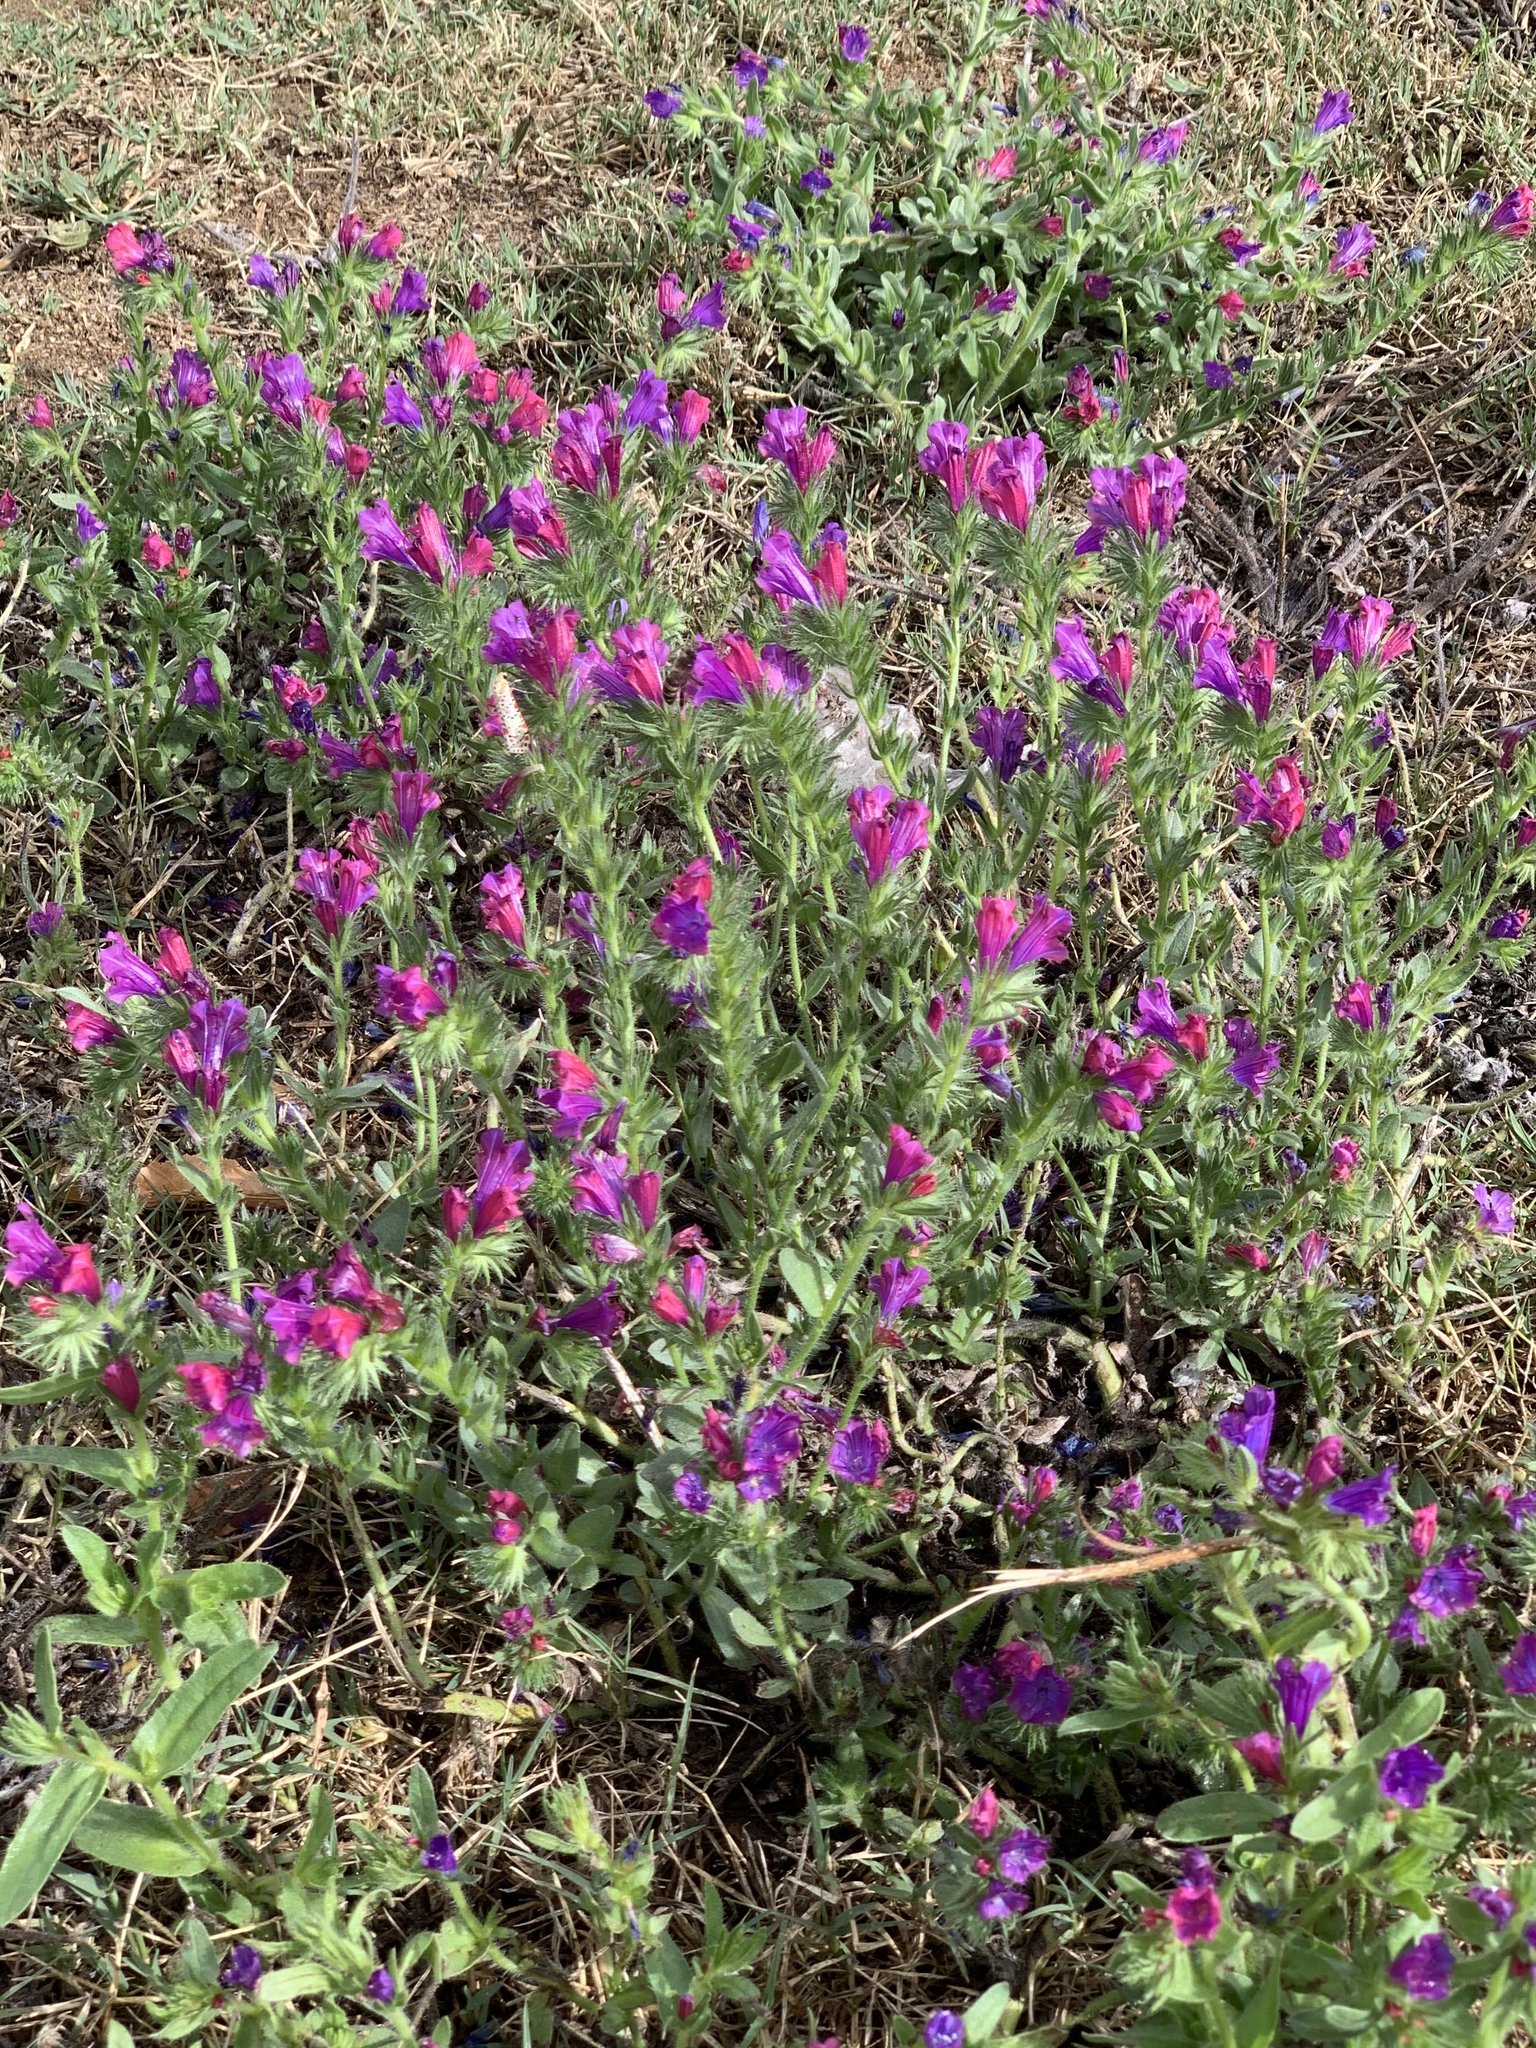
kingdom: Plantae
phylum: Tracheophyta
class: Magnoliopsida
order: Boraginales
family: Boraginaceae
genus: Echium
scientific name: Echium plantagineum
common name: Purple viper's-bugloss
